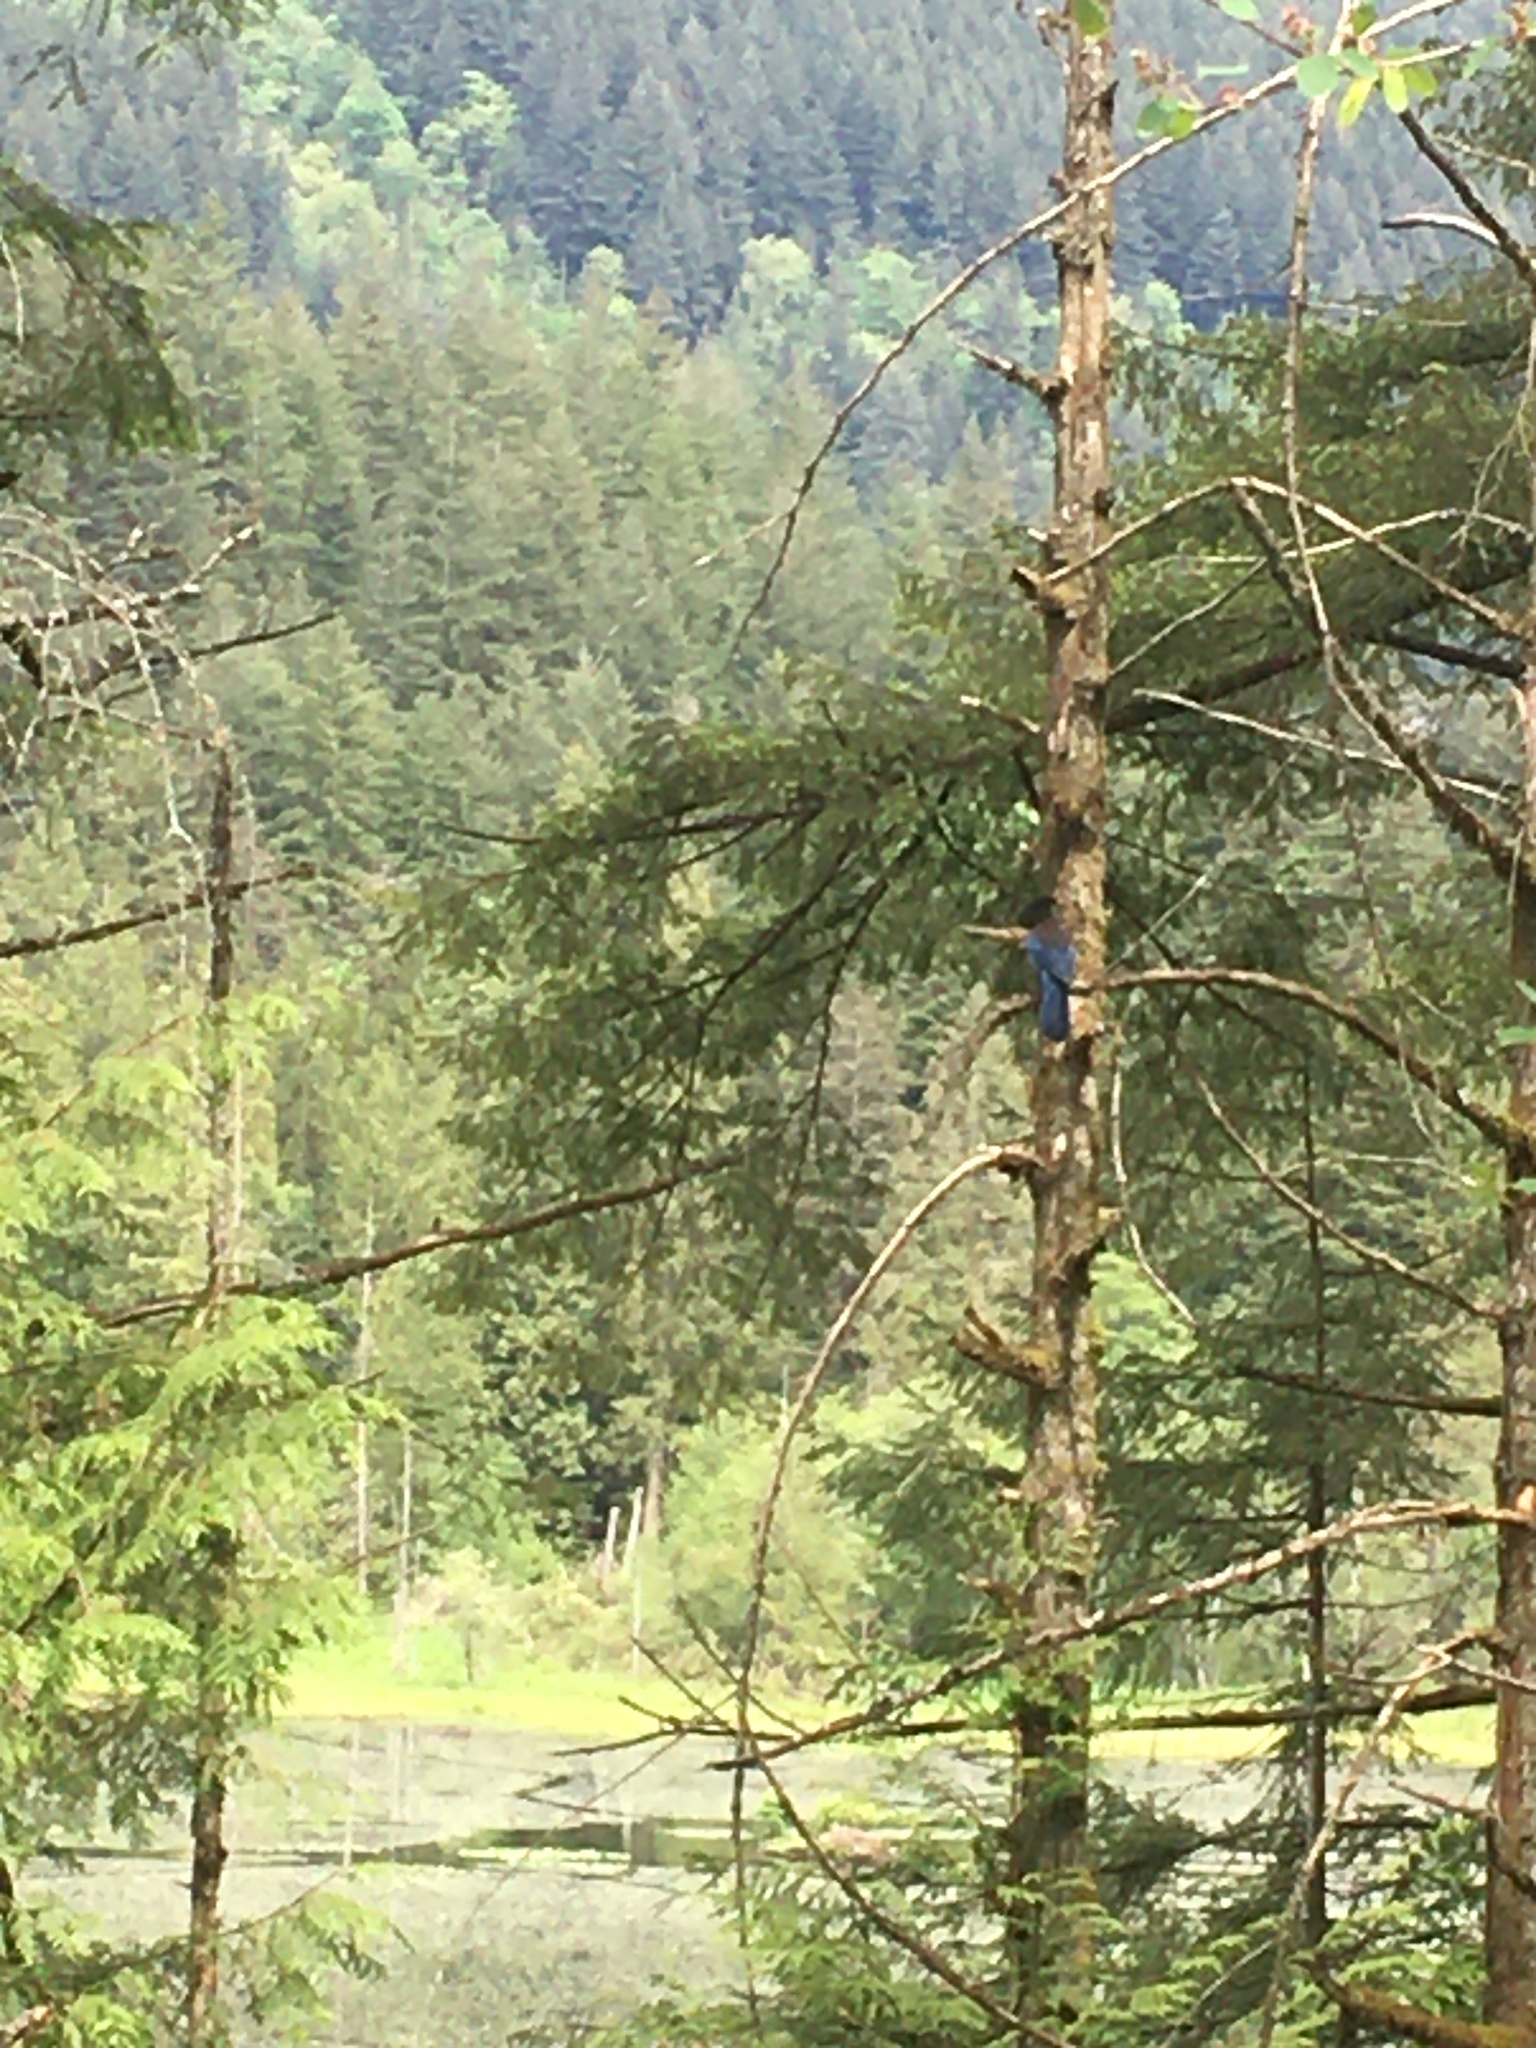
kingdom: Animalia
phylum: Chordata
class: Aves
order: Passeriformes
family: Corvidae
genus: Cyanocitta
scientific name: Cyanocitta stelleri
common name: Steller's jay
